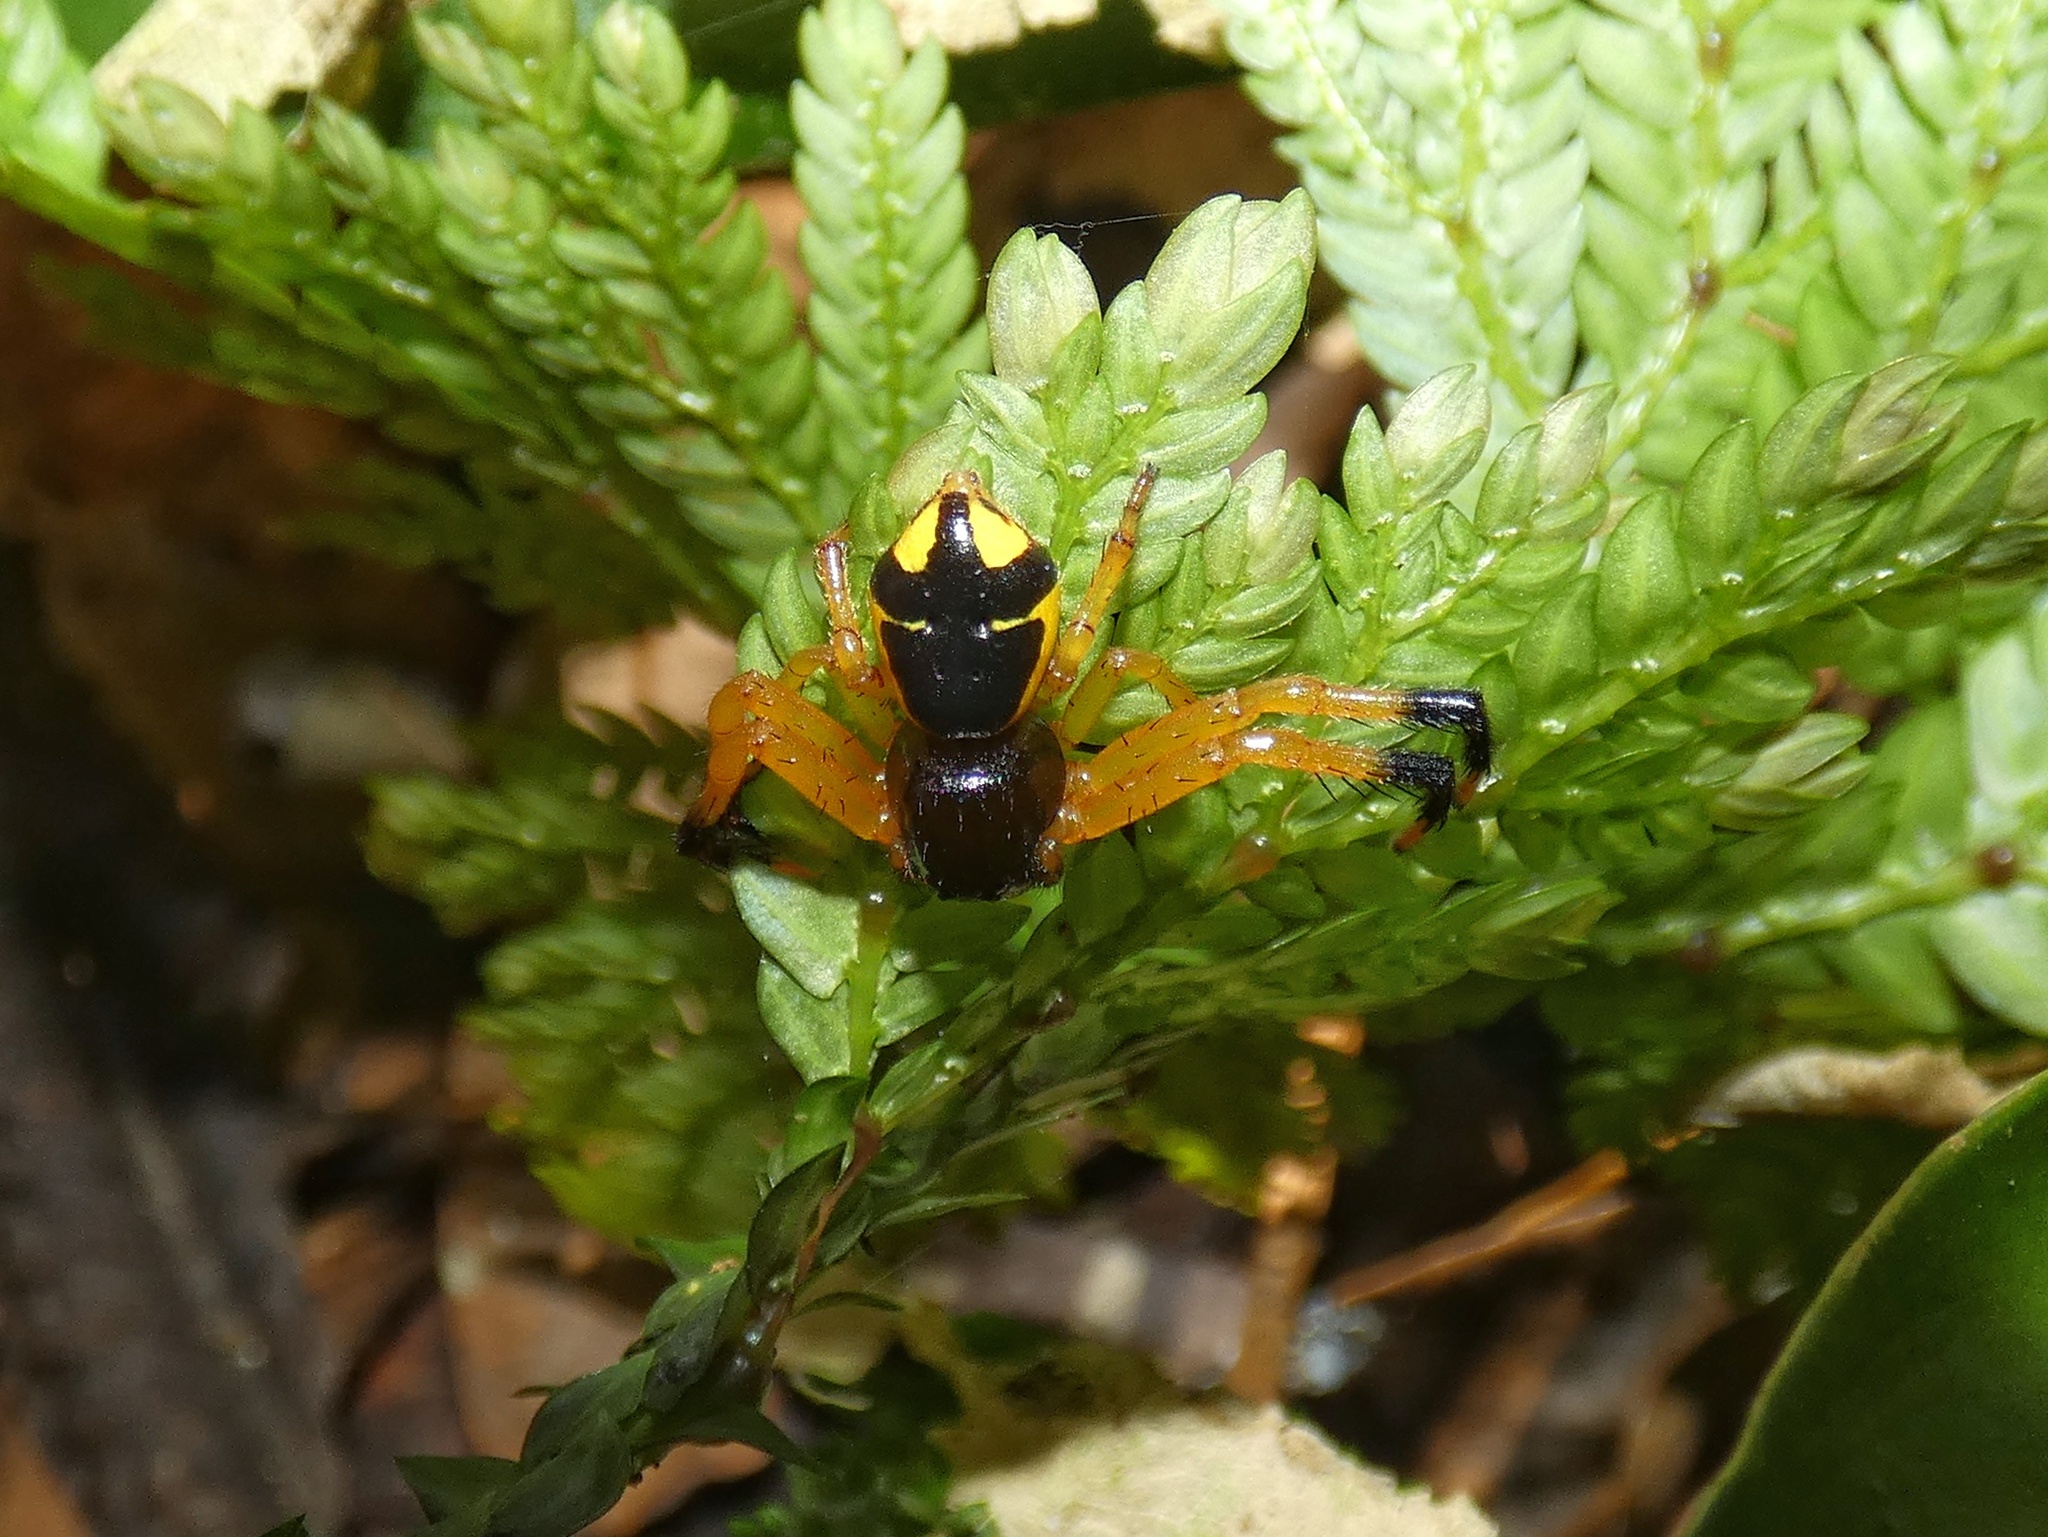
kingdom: Animalia
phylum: Arthropoda
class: Arachnida
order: Araneae
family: Thomisidae
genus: Stephanopoides
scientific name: Stephanopoides simoni
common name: Crab spiders
